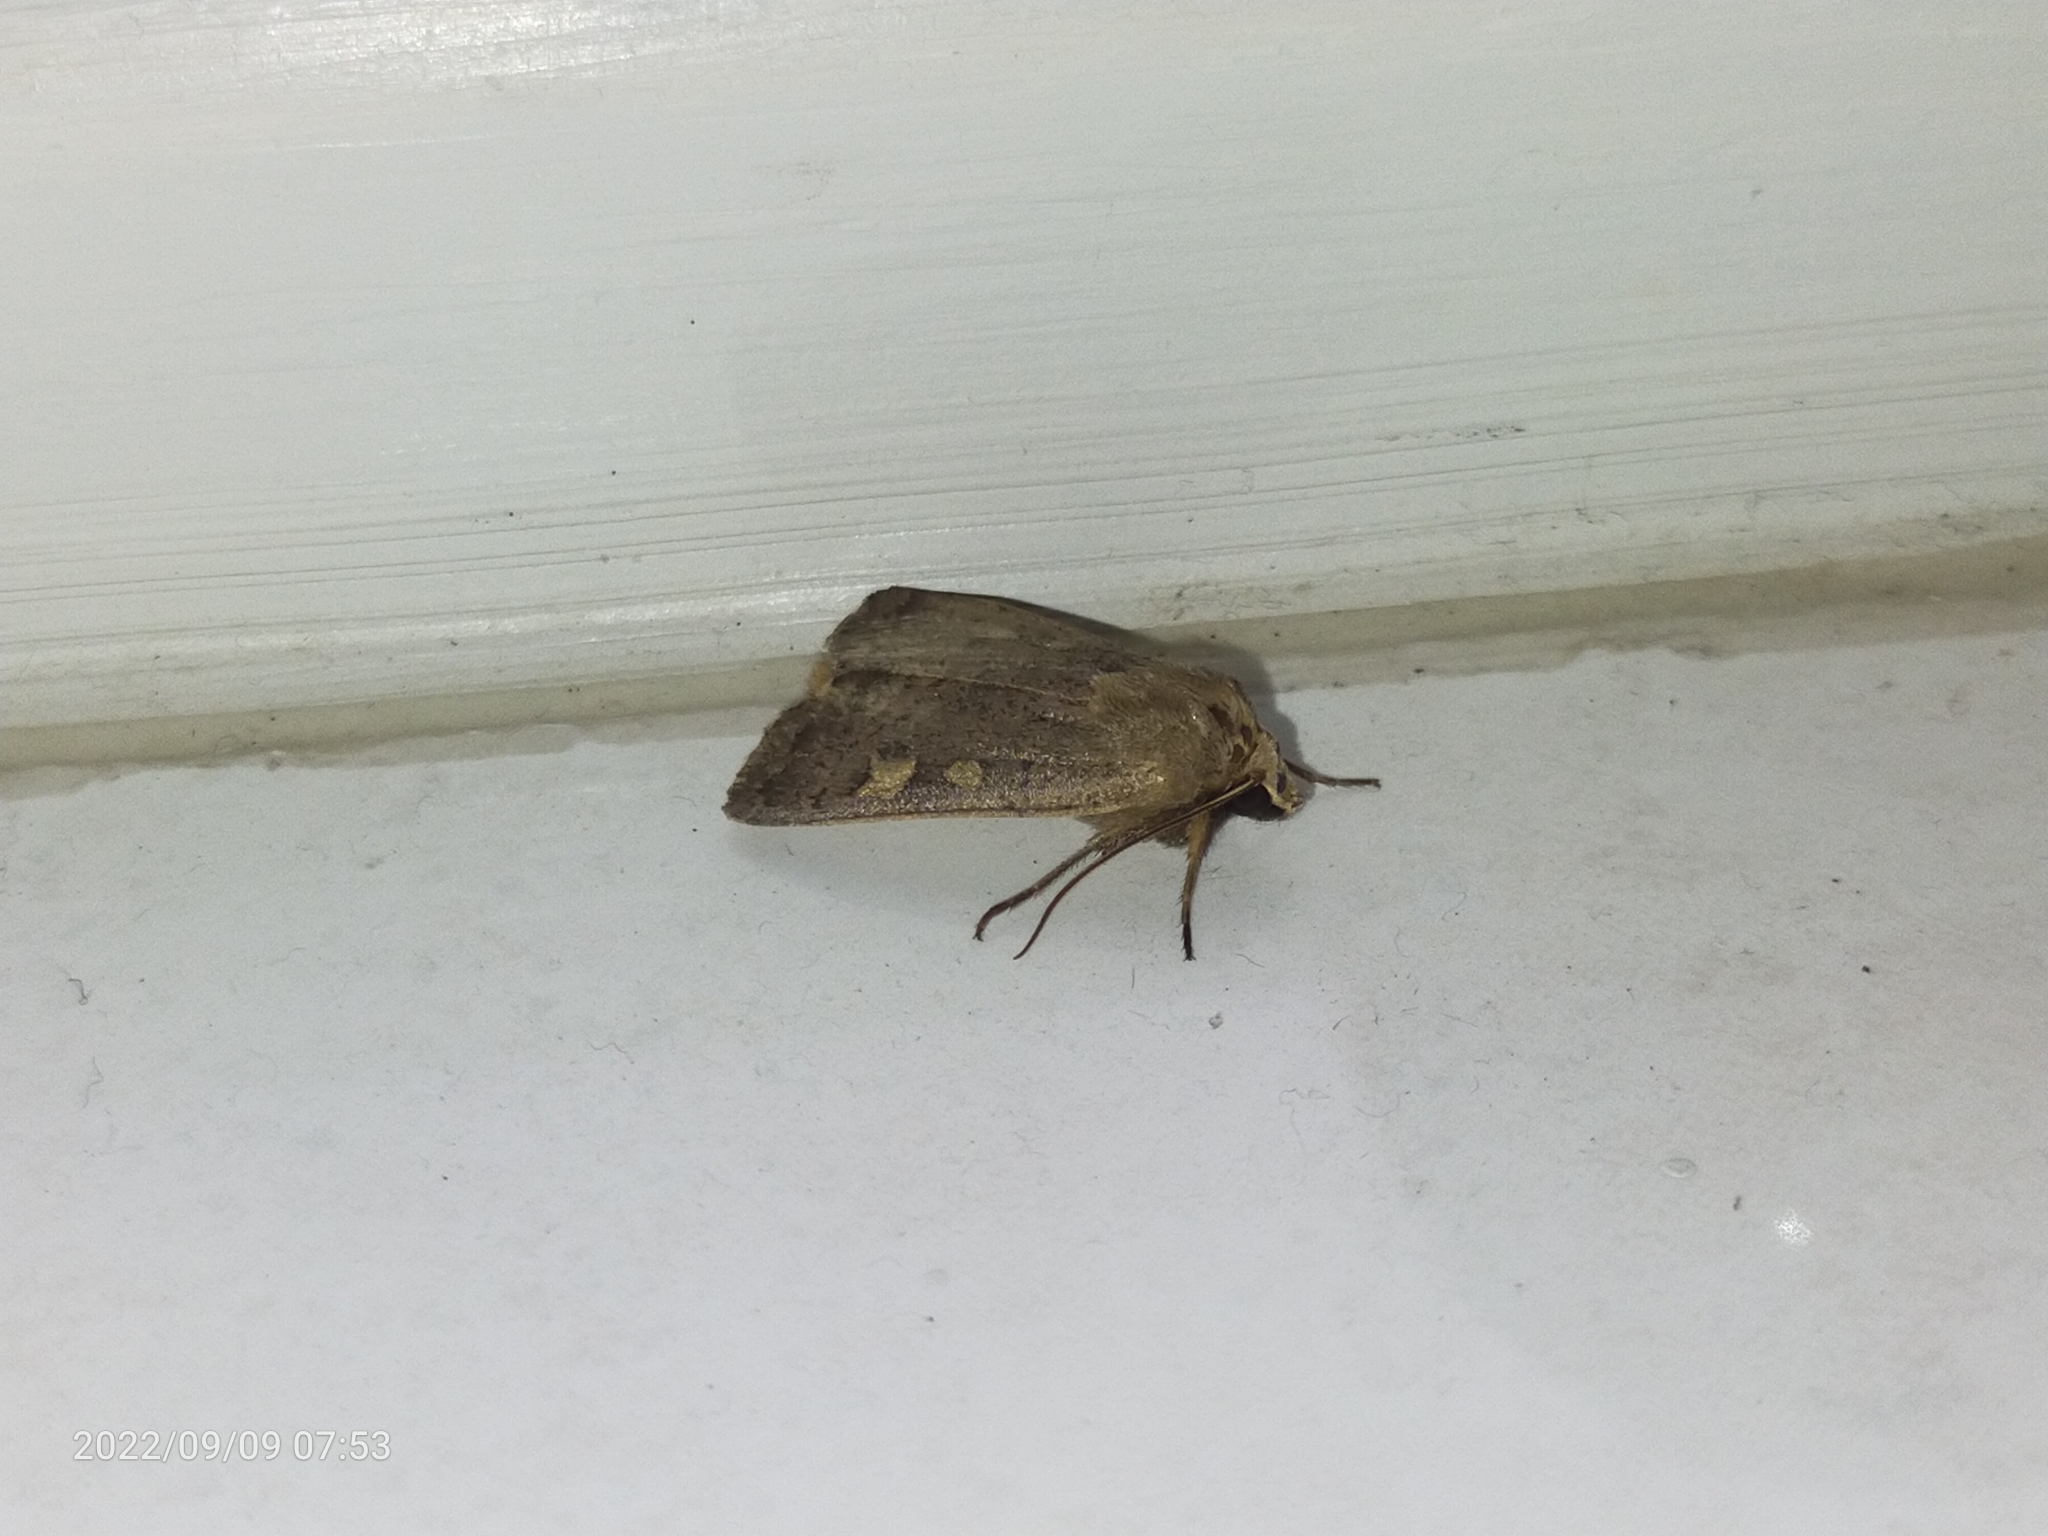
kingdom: Animalia
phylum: Arthropoda
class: Insecta
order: Lepidoptera
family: Noctuidae
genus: Xestia
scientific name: Xestia xanthographa
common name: Square-spot rustic
